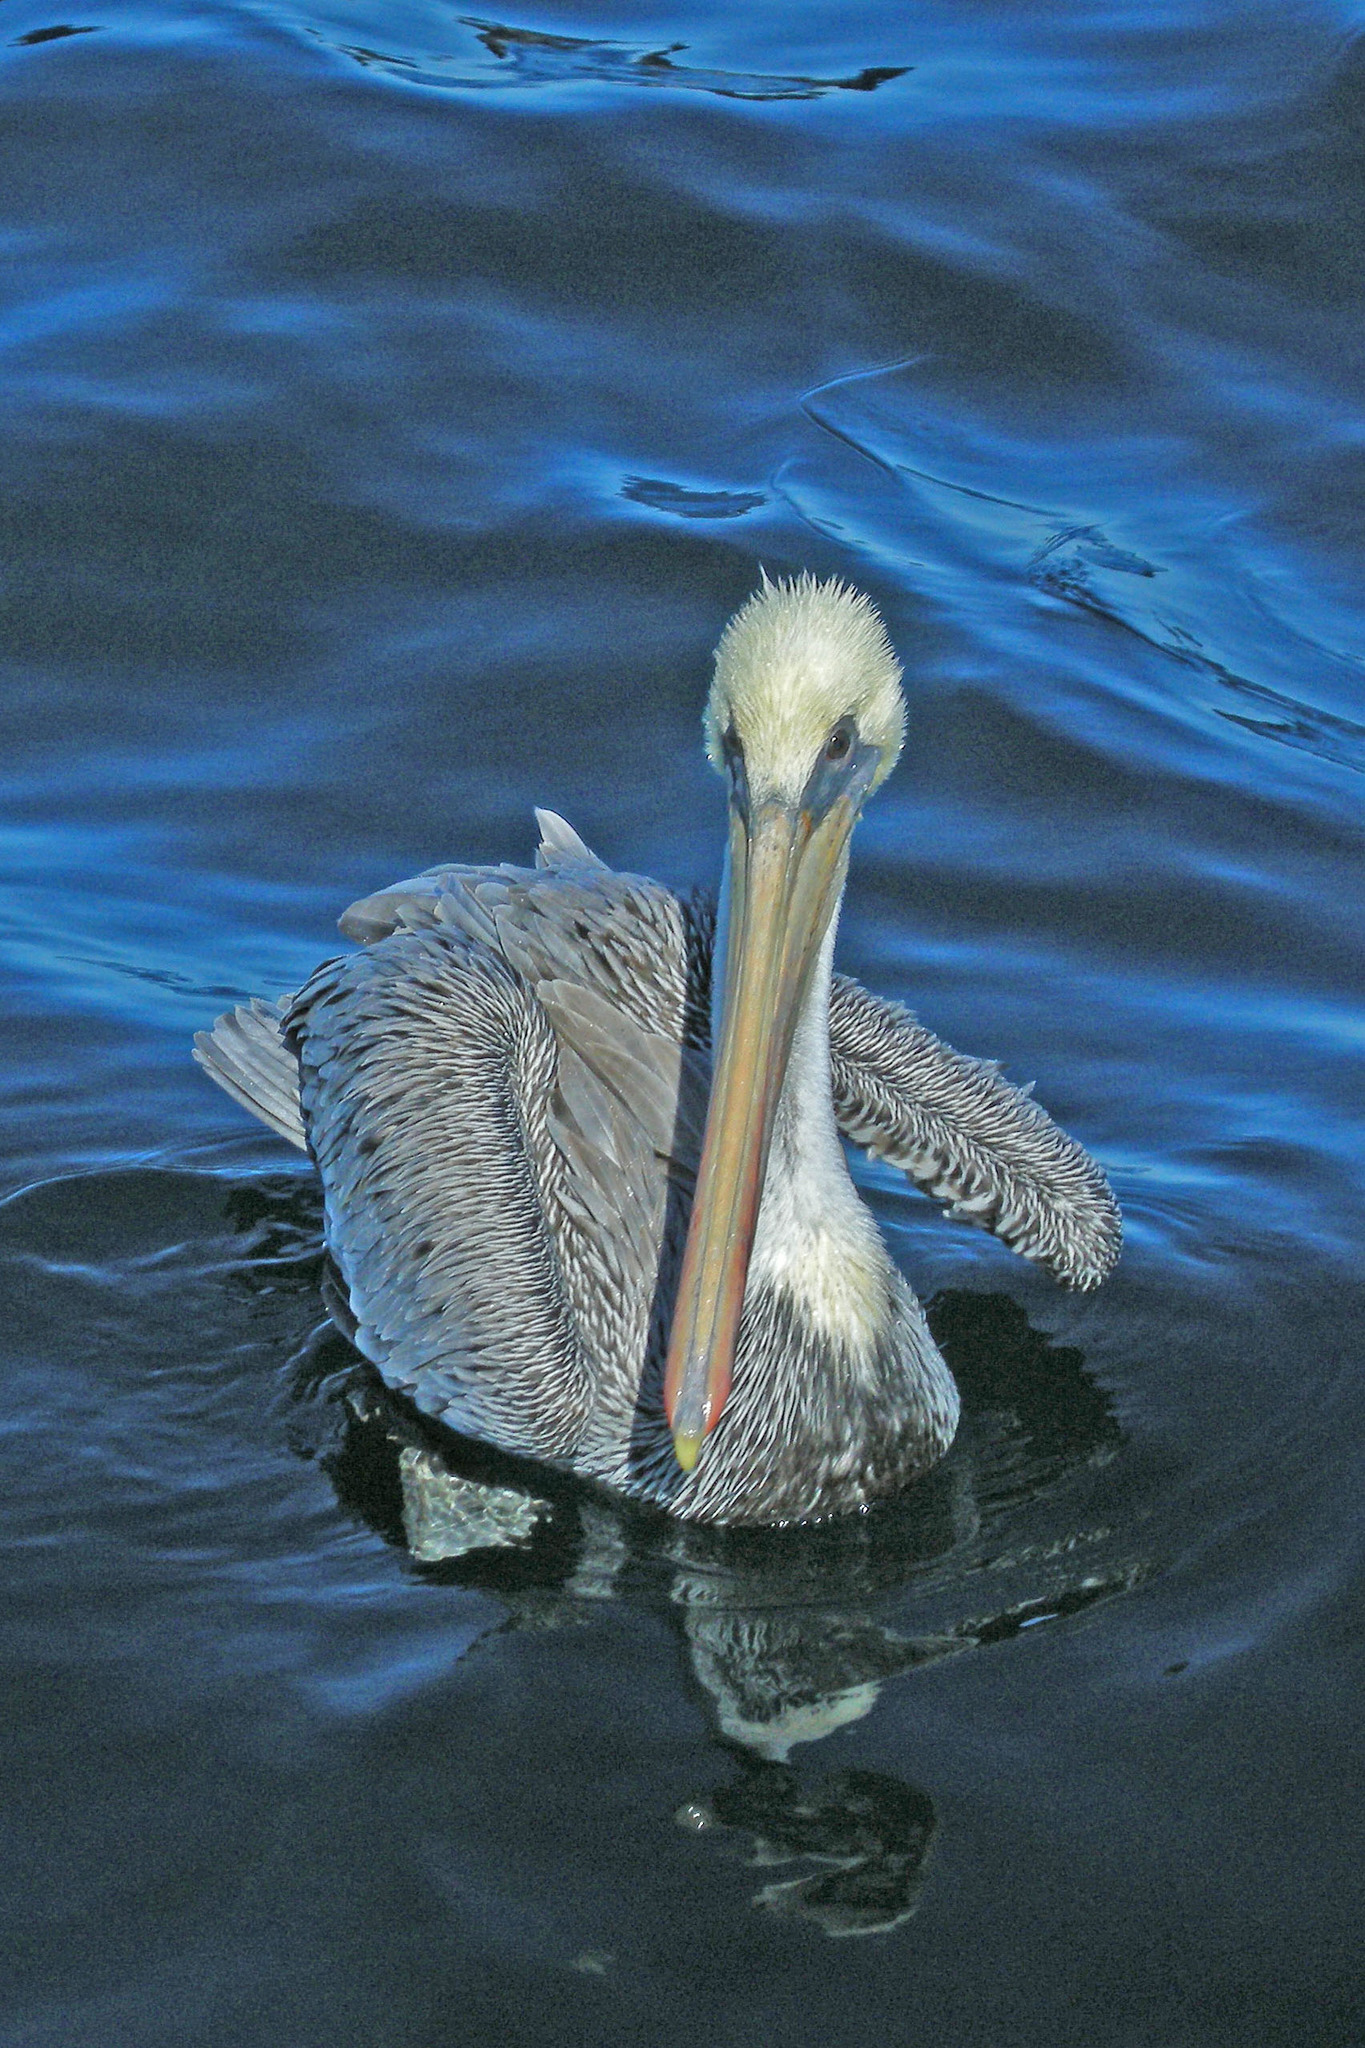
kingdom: Animalia
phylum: Chordata
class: Aves
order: Pelecaniformes
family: Pelecanidae
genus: Pelecanus
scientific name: Pelecanus occidentalis
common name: Brown pelican
